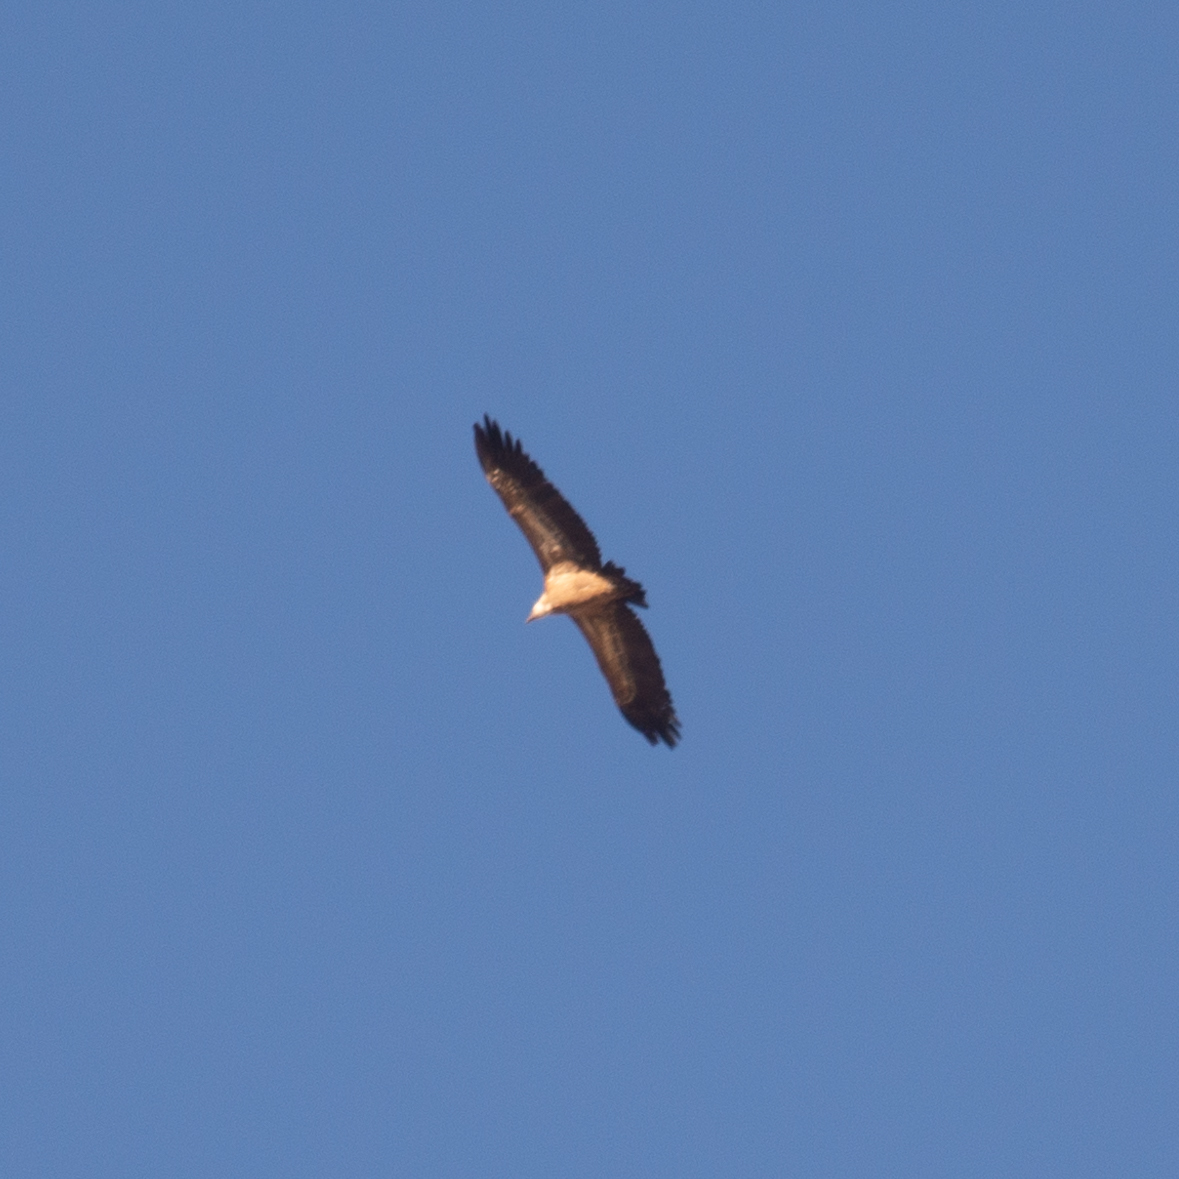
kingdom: Animalia
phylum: Chordata
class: Aves
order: Accipitriformes
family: Accipitridae
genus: Gyps
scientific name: Gyps fulvus
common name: Griffon vulture
